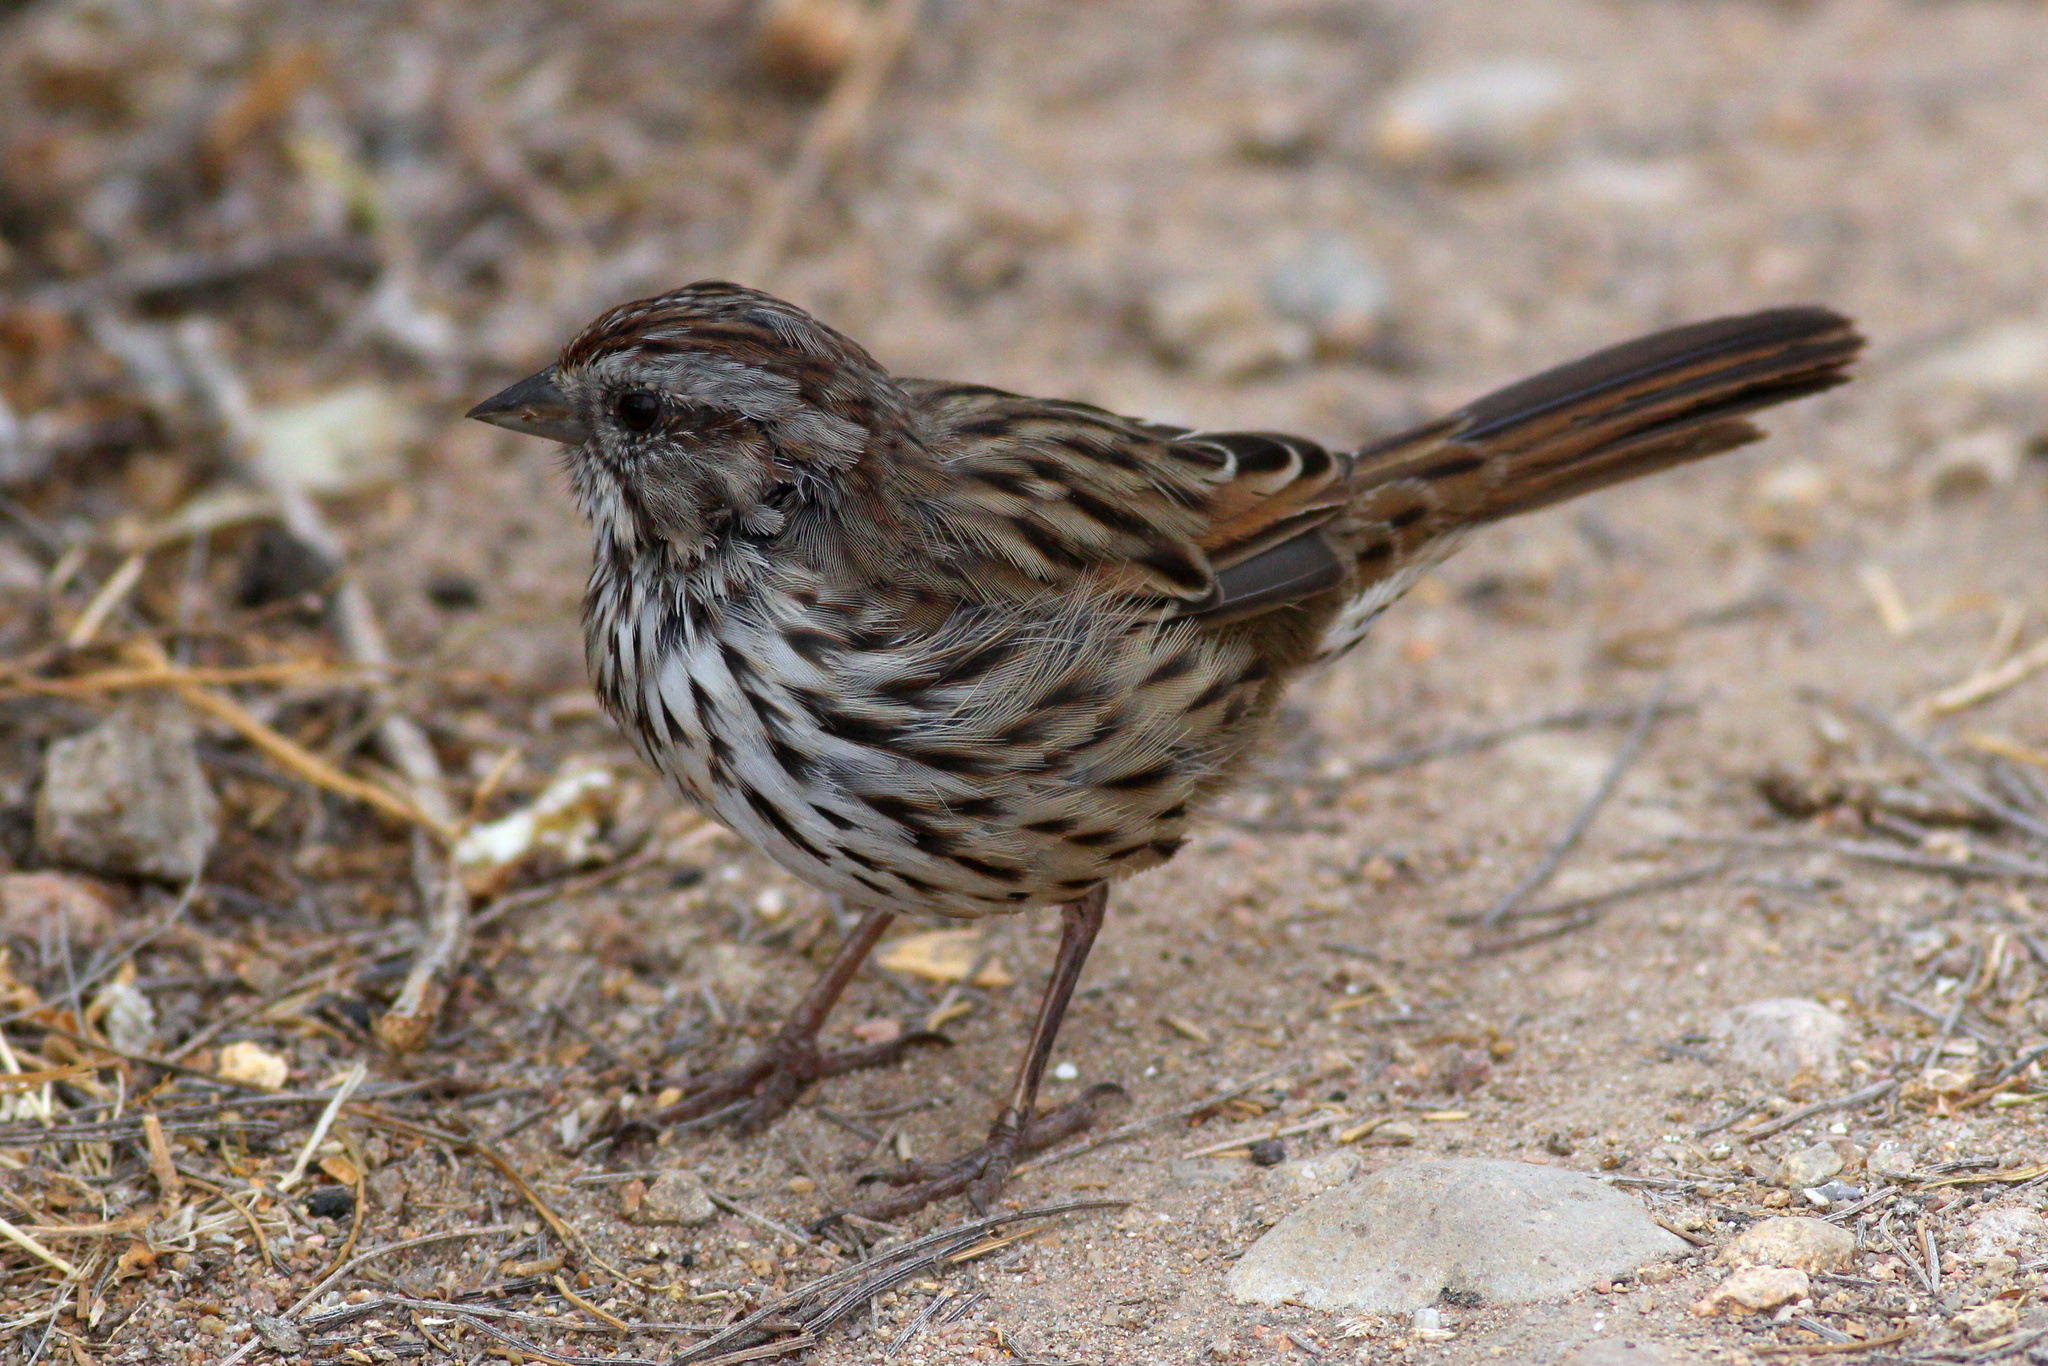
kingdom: Animalia
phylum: Chordata
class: Aves
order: Passeriformes
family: Passerellidae
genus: Melospiza
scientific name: Melospiza melodia
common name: Song sparrow
